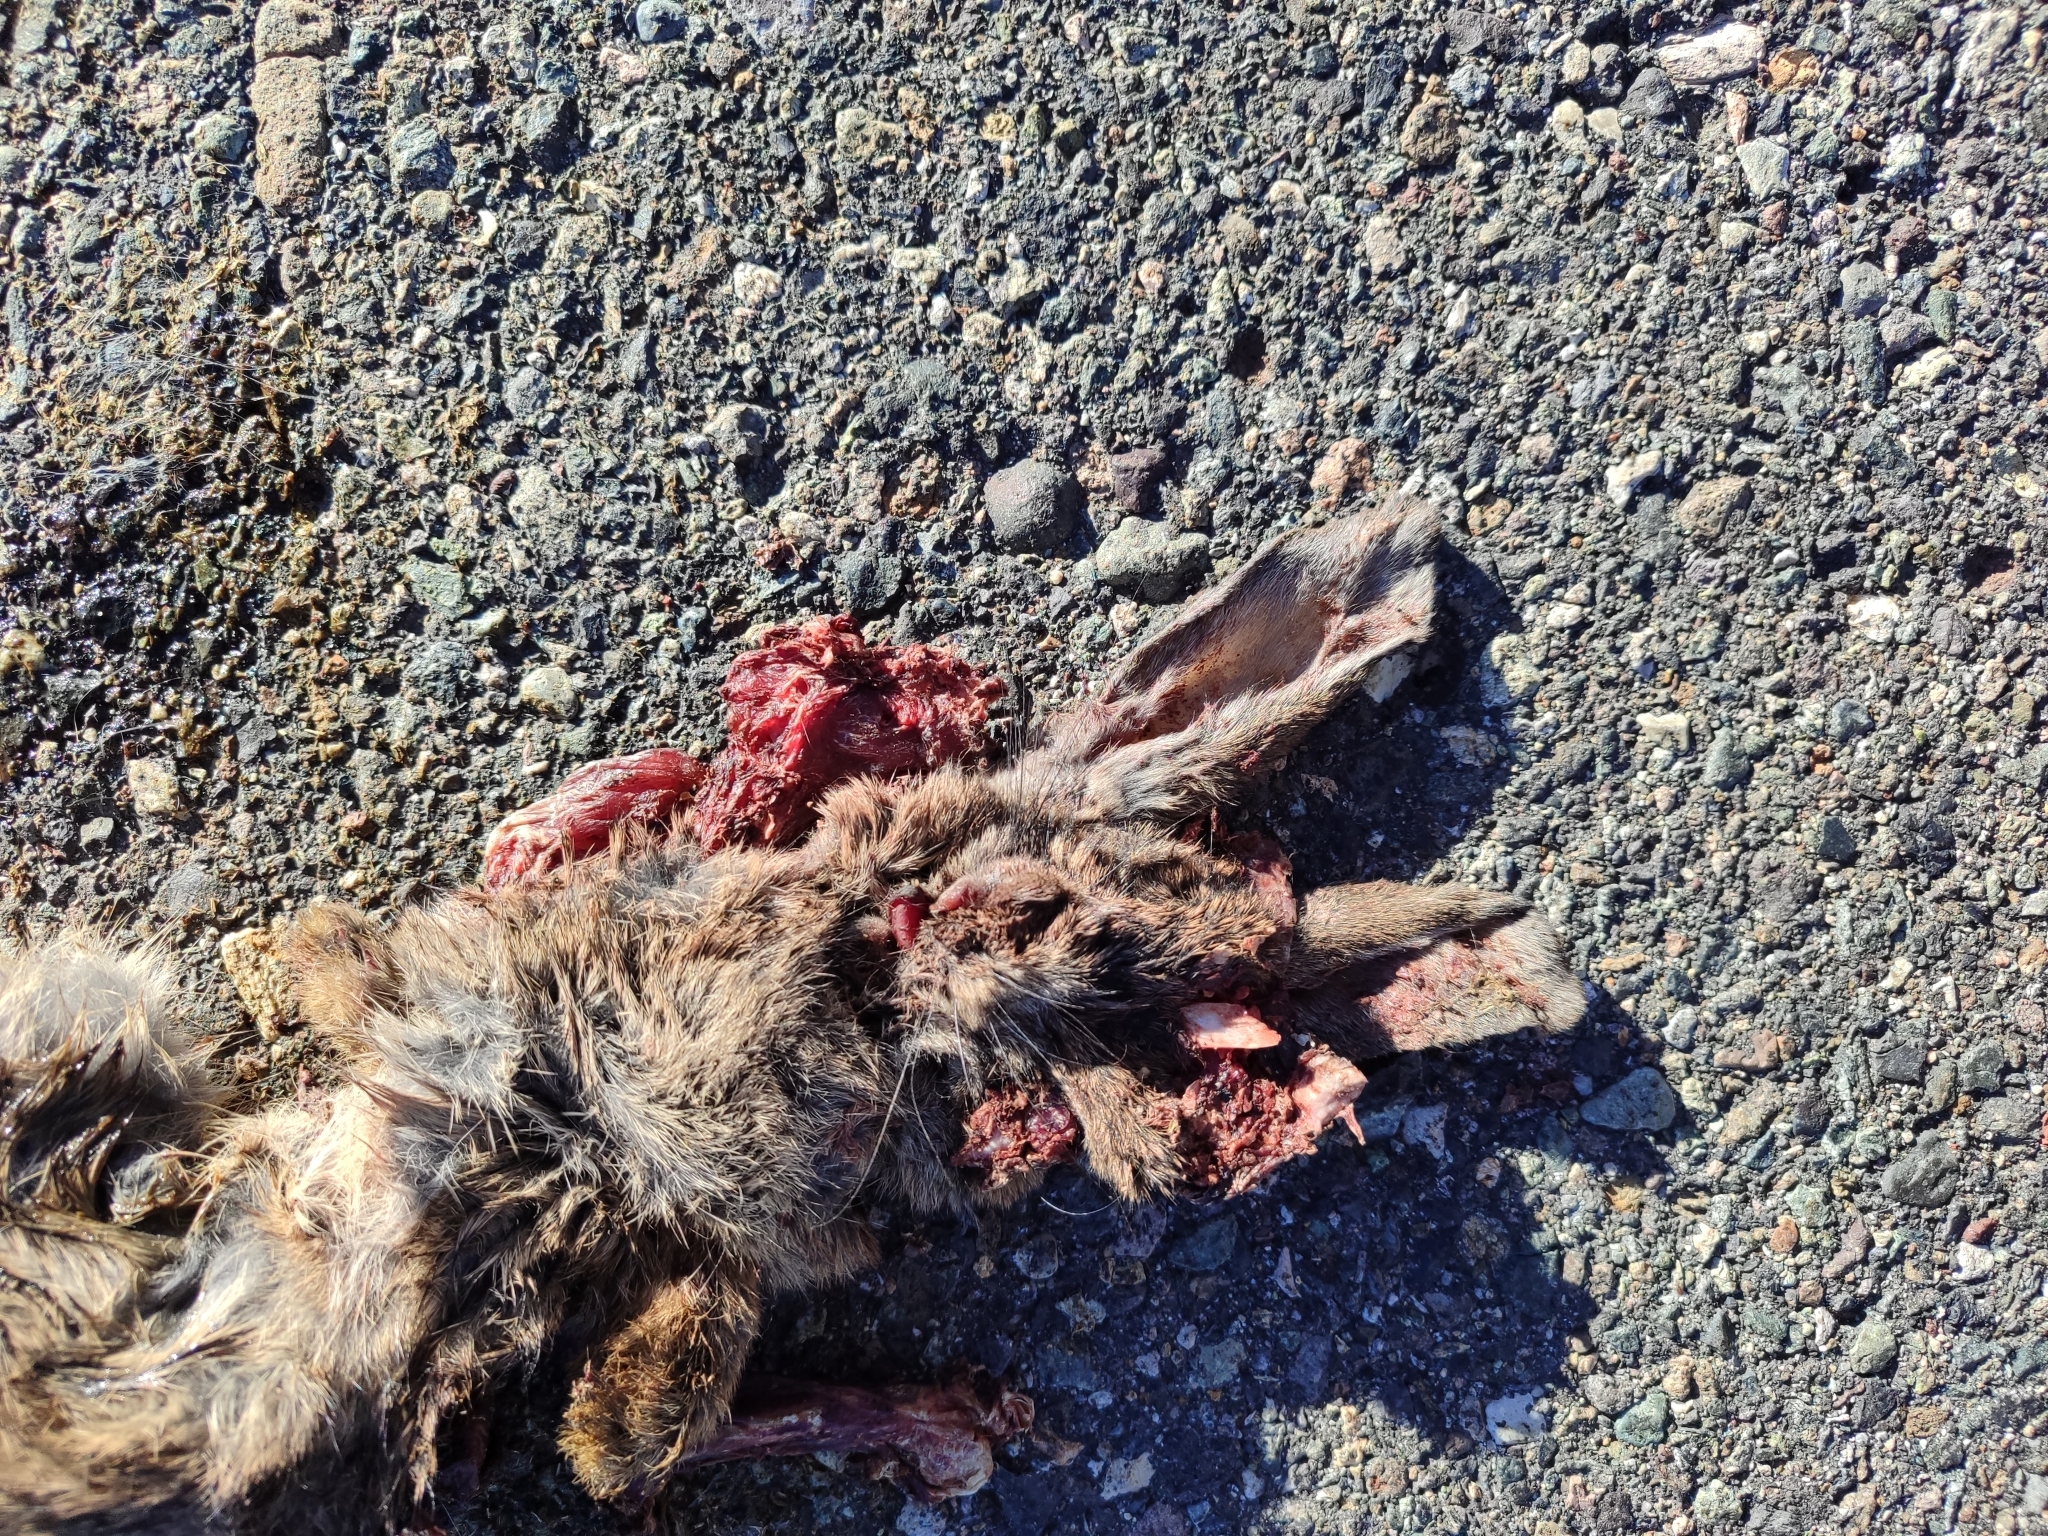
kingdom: Animalia
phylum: Chordata
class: Mammalia
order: Lagomorpha
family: Leporidae
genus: Oryctolagus
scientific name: Oryctolagus cuniculus
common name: European rabbit
